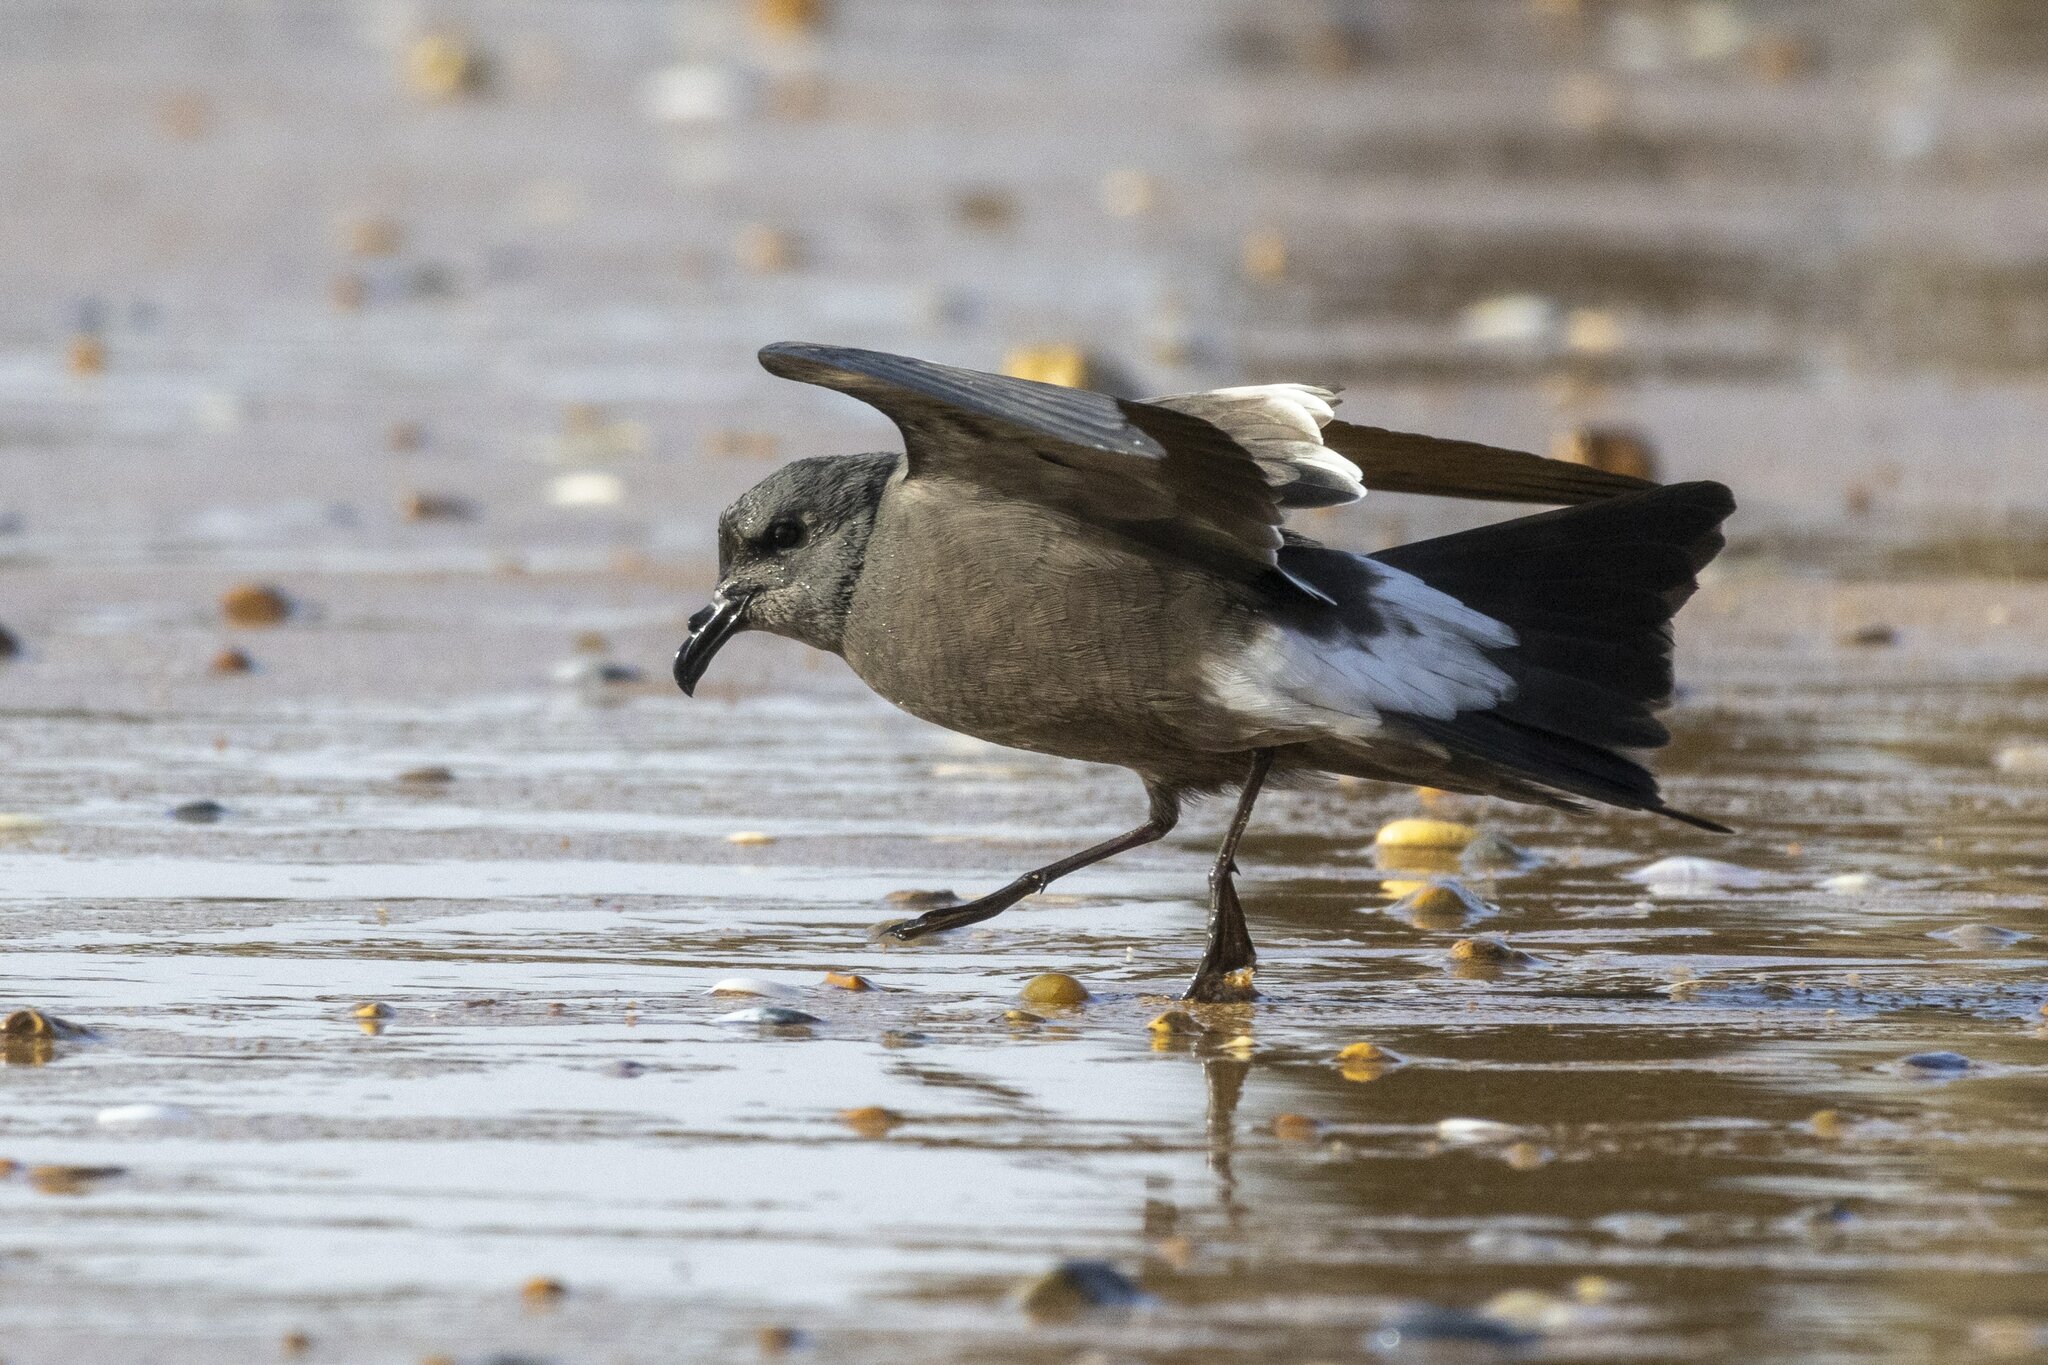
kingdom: Animalia
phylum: Chordata
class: Aves
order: Procellariiformes
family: Hydrobatidae
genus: Oceanodroma
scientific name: Oceanodroma leucorhoa
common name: Leach's storm-petrel
